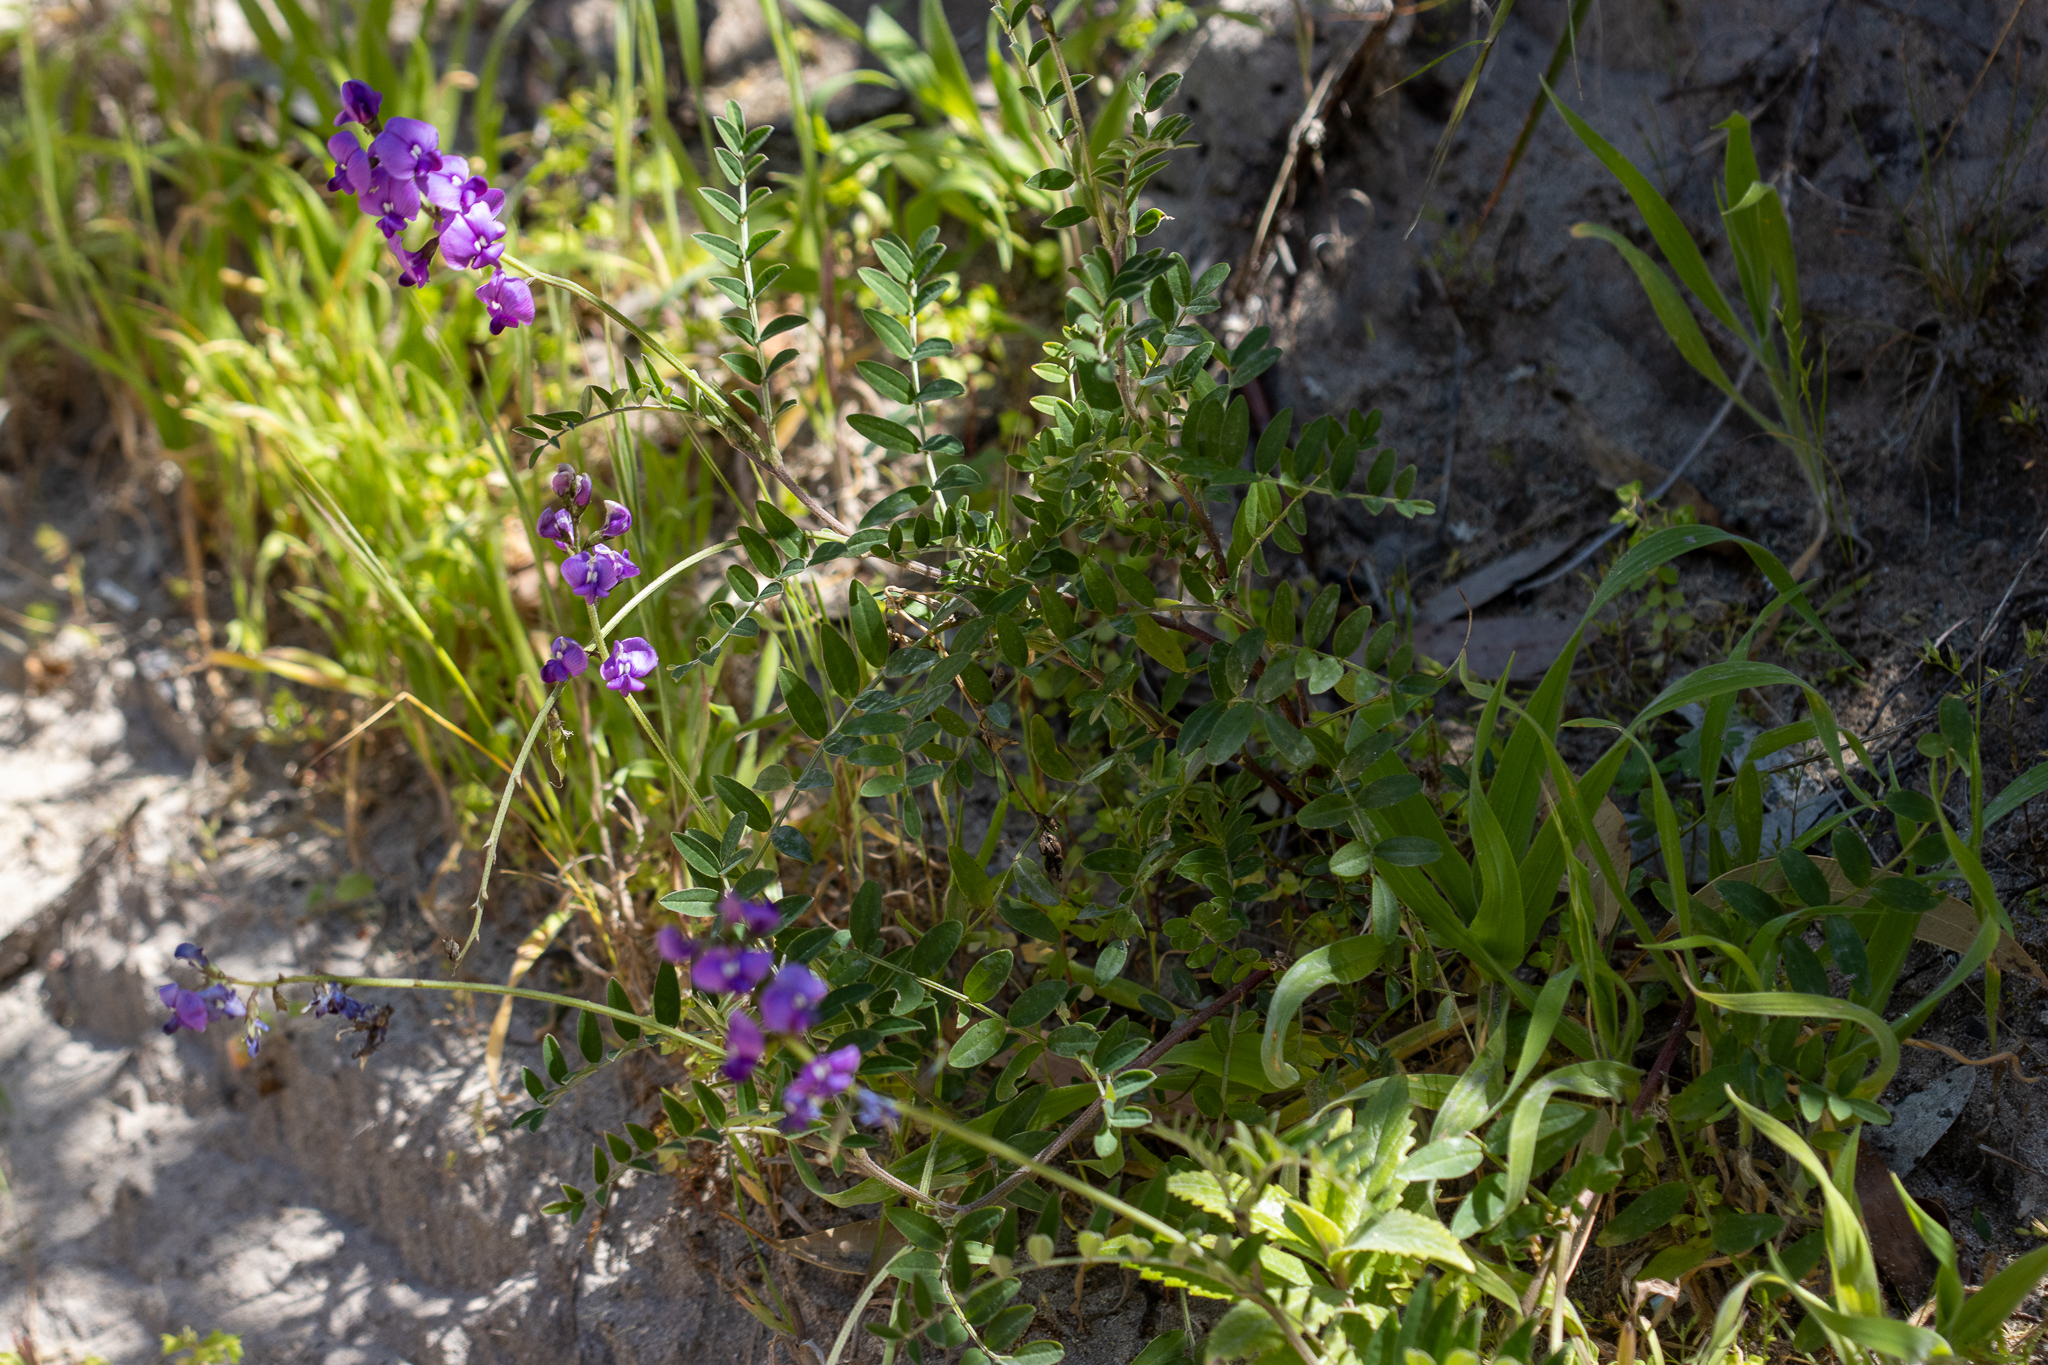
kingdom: Plantae
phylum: Tracheophyta
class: Magnoliopsida
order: Fabales
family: Fabaceae
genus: Swainsona
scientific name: Swainsona lessertiifolia
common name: Bog-pea
